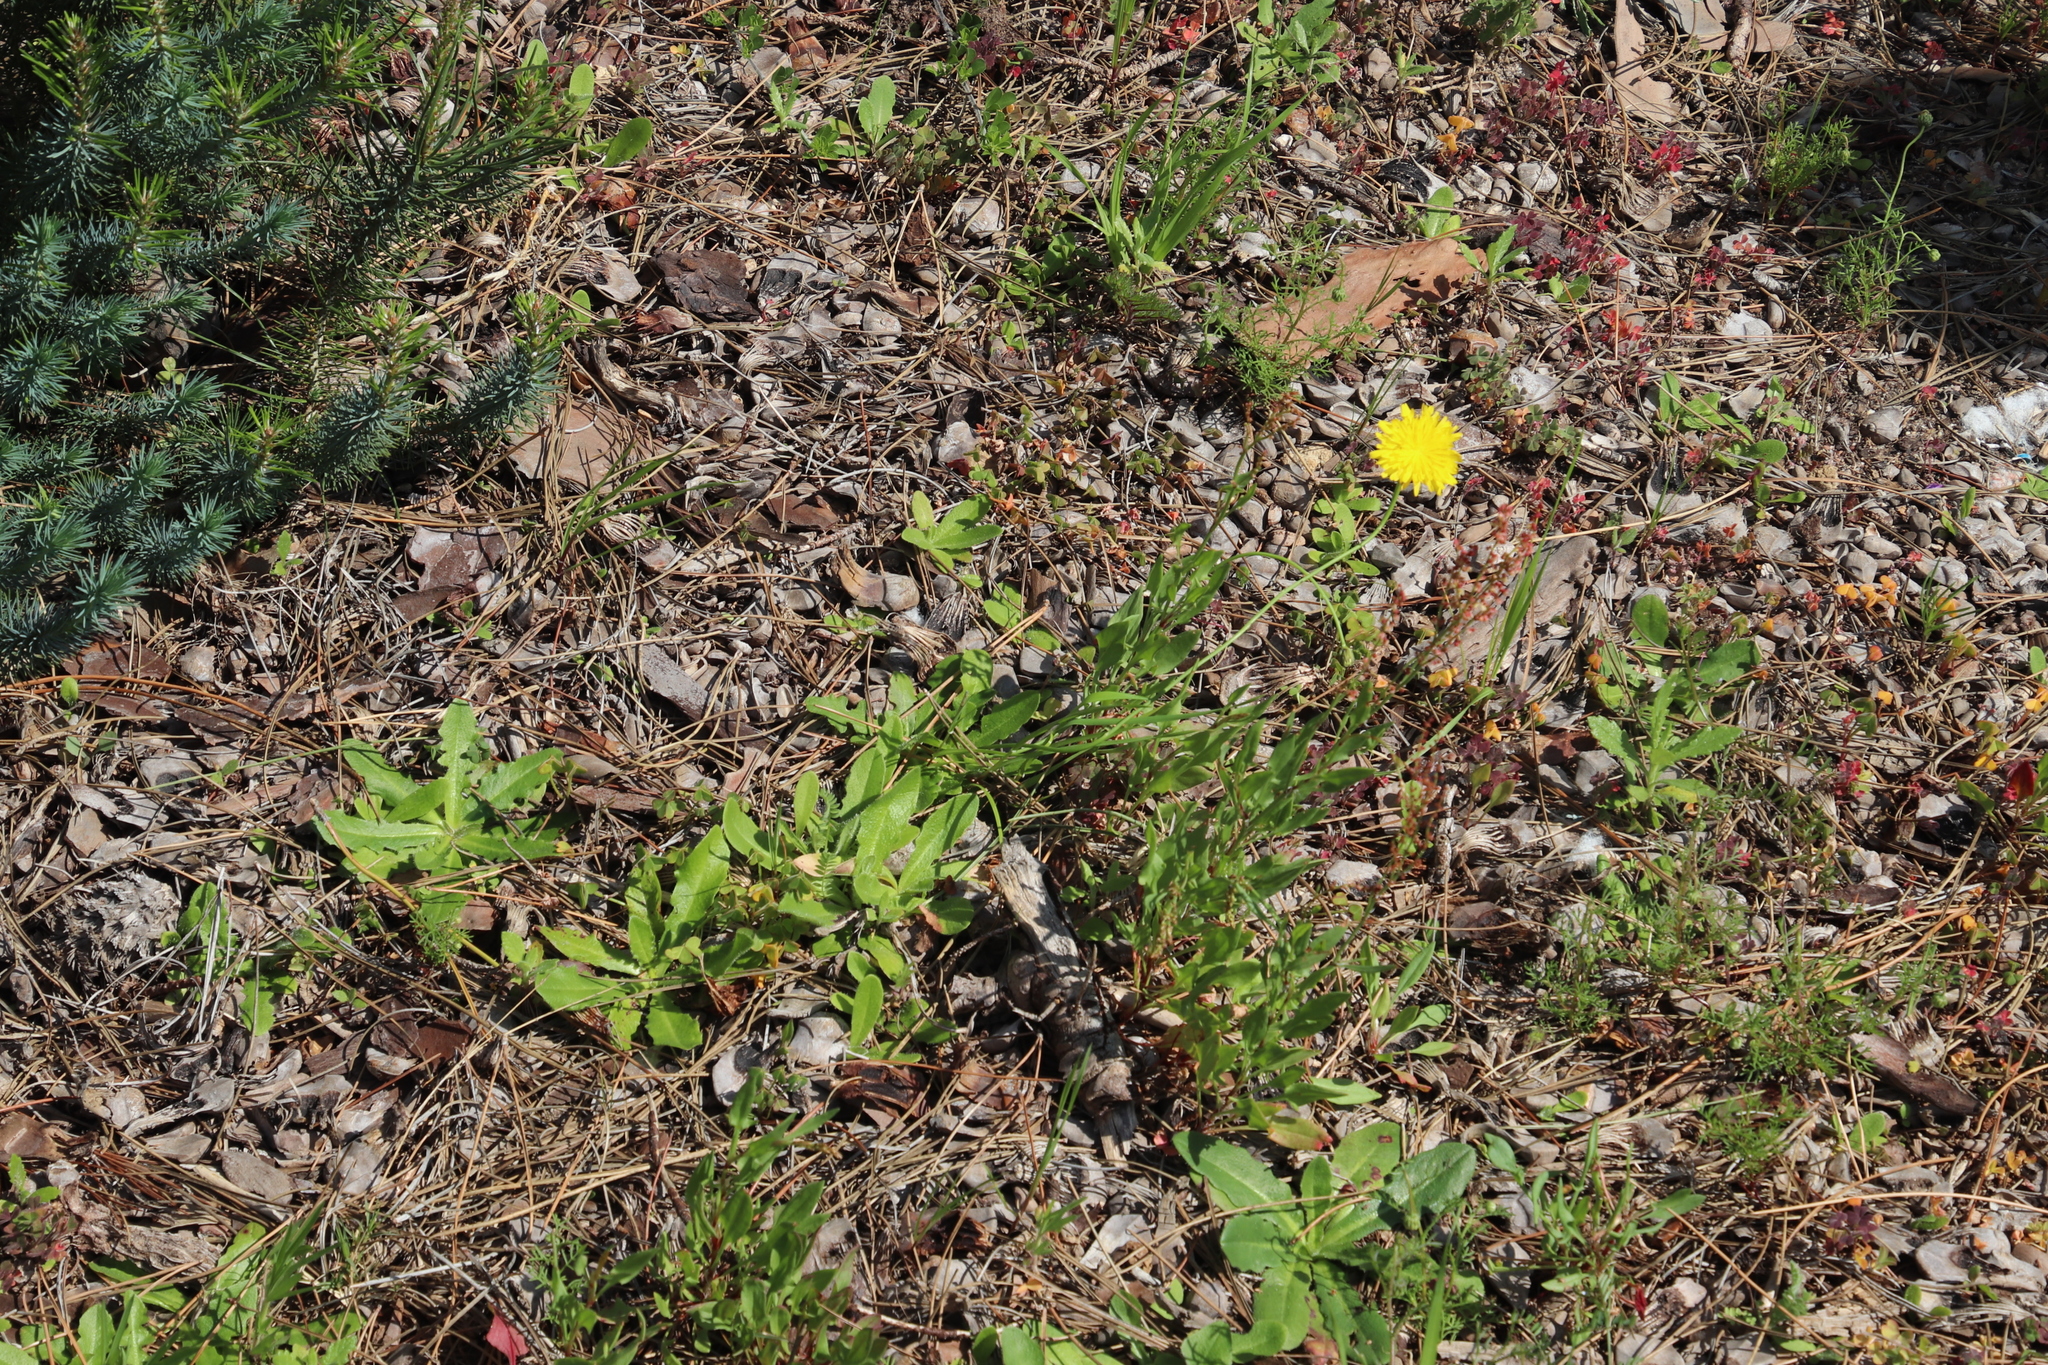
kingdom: Plantae
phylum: Tracheophyta
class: Magnoliopsida
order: Asterales
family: Asteraceae
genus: Hypochaeris
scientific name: Hypochaeris radicata
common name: Flatweed
